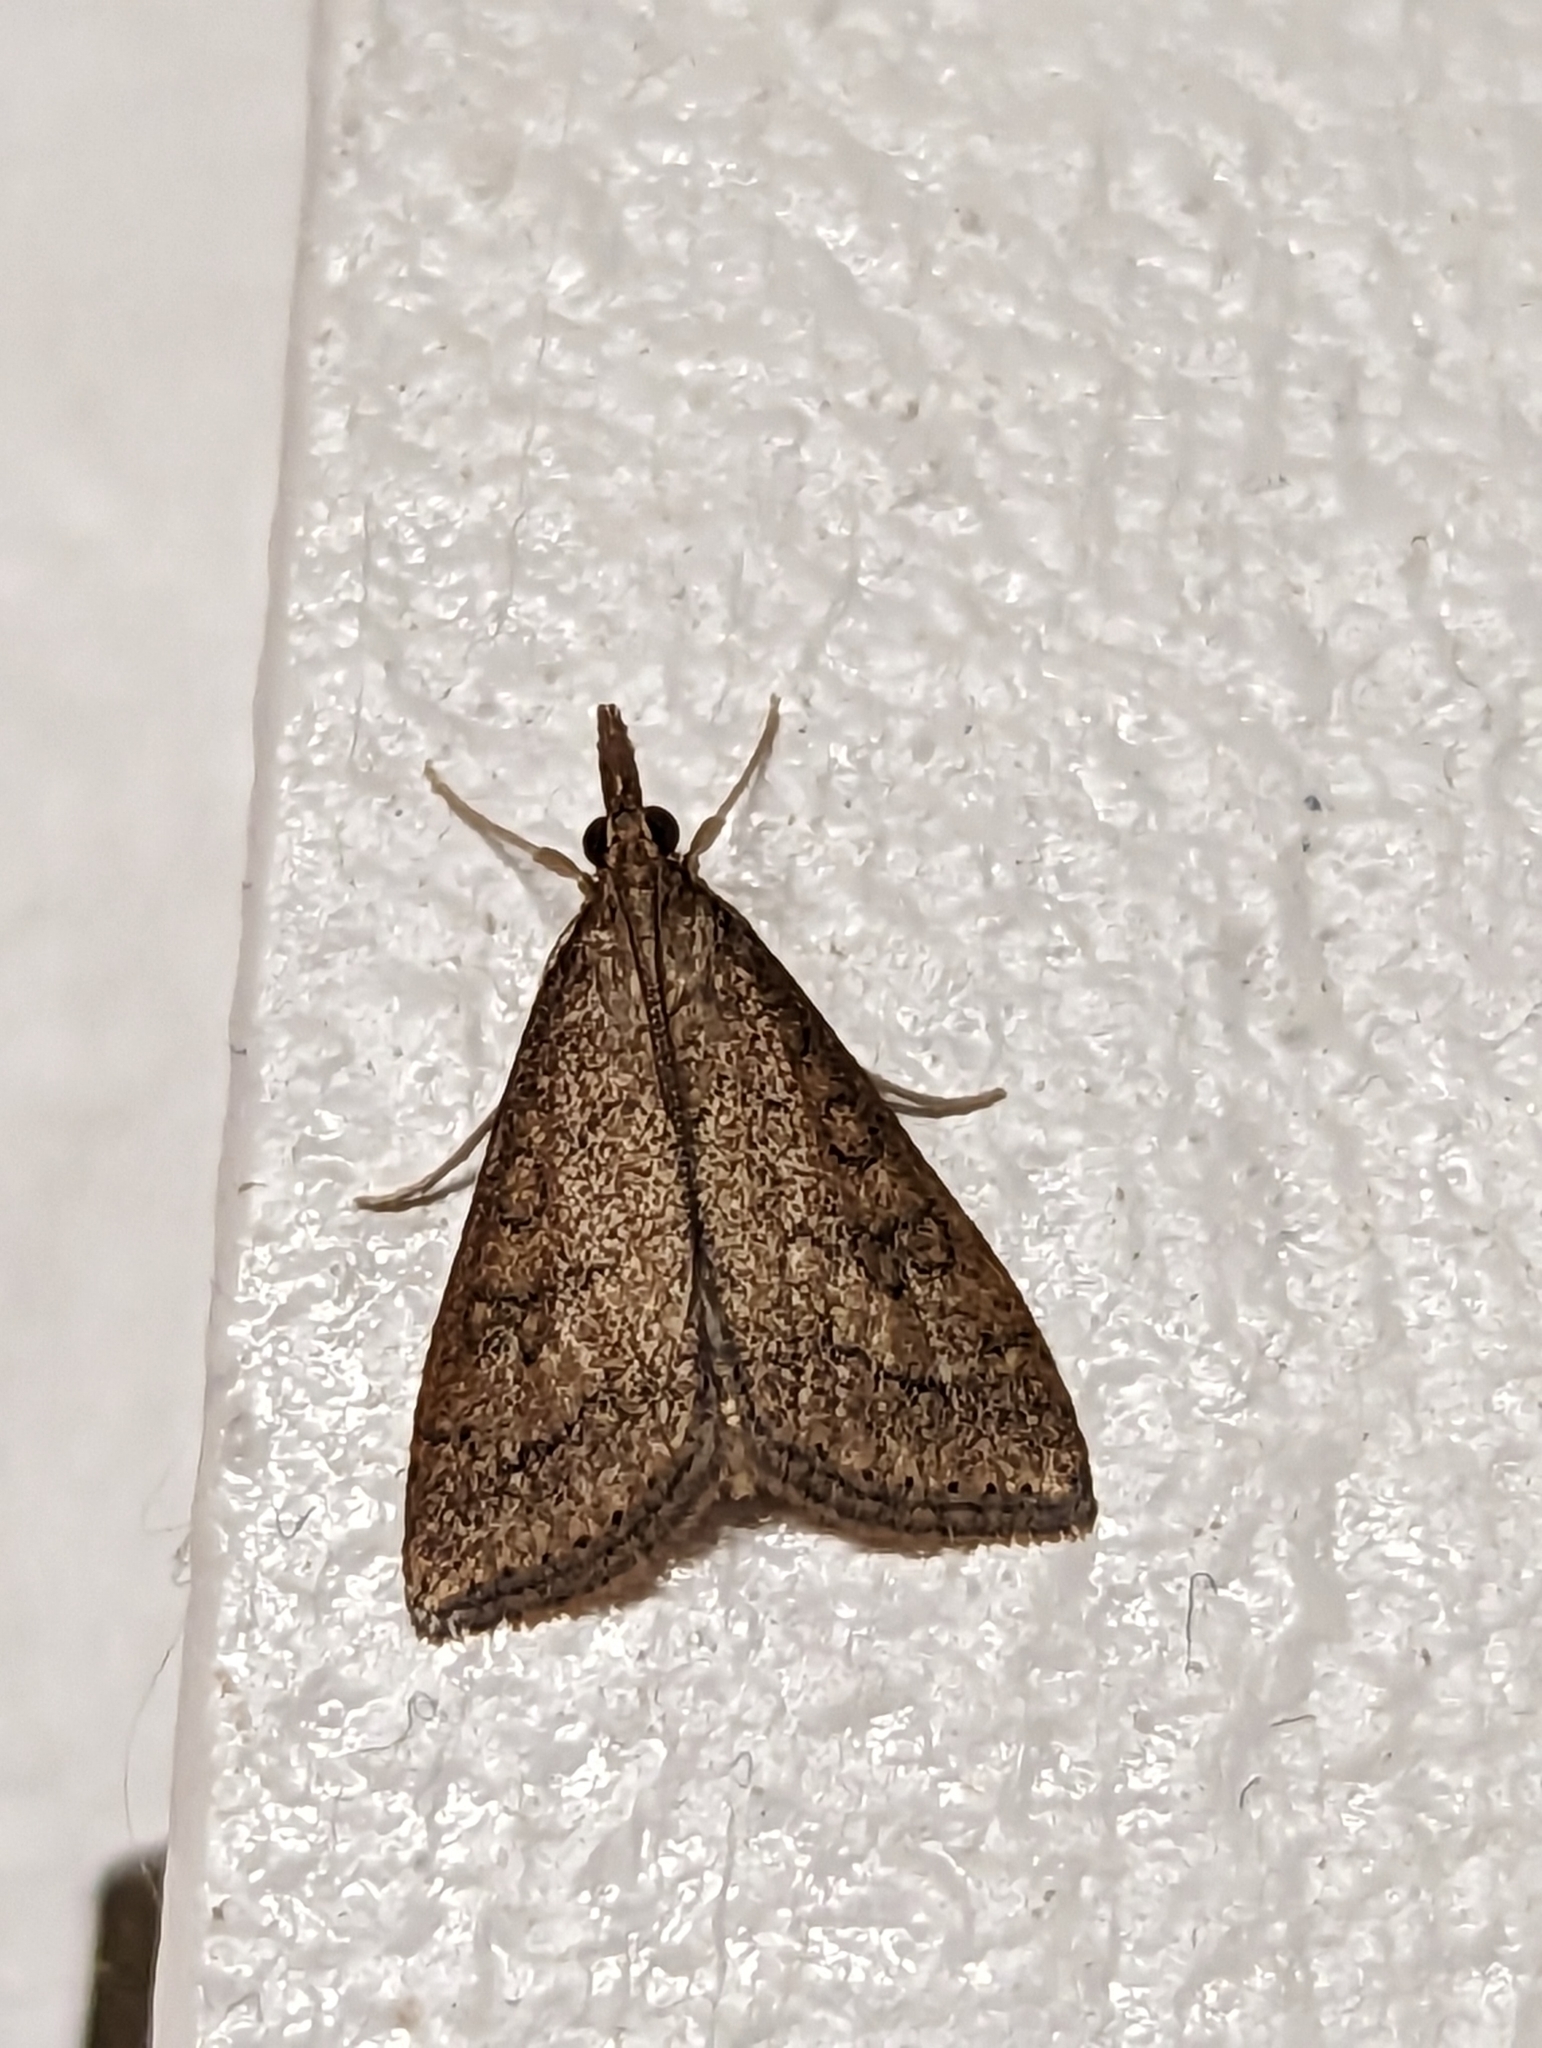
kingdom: Animalia
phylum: Arthropoda
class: Insecta
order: Lepidoptera
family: Crambidae
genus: Udea
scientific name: Udea rubigalis
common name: Celery leaftier moth
